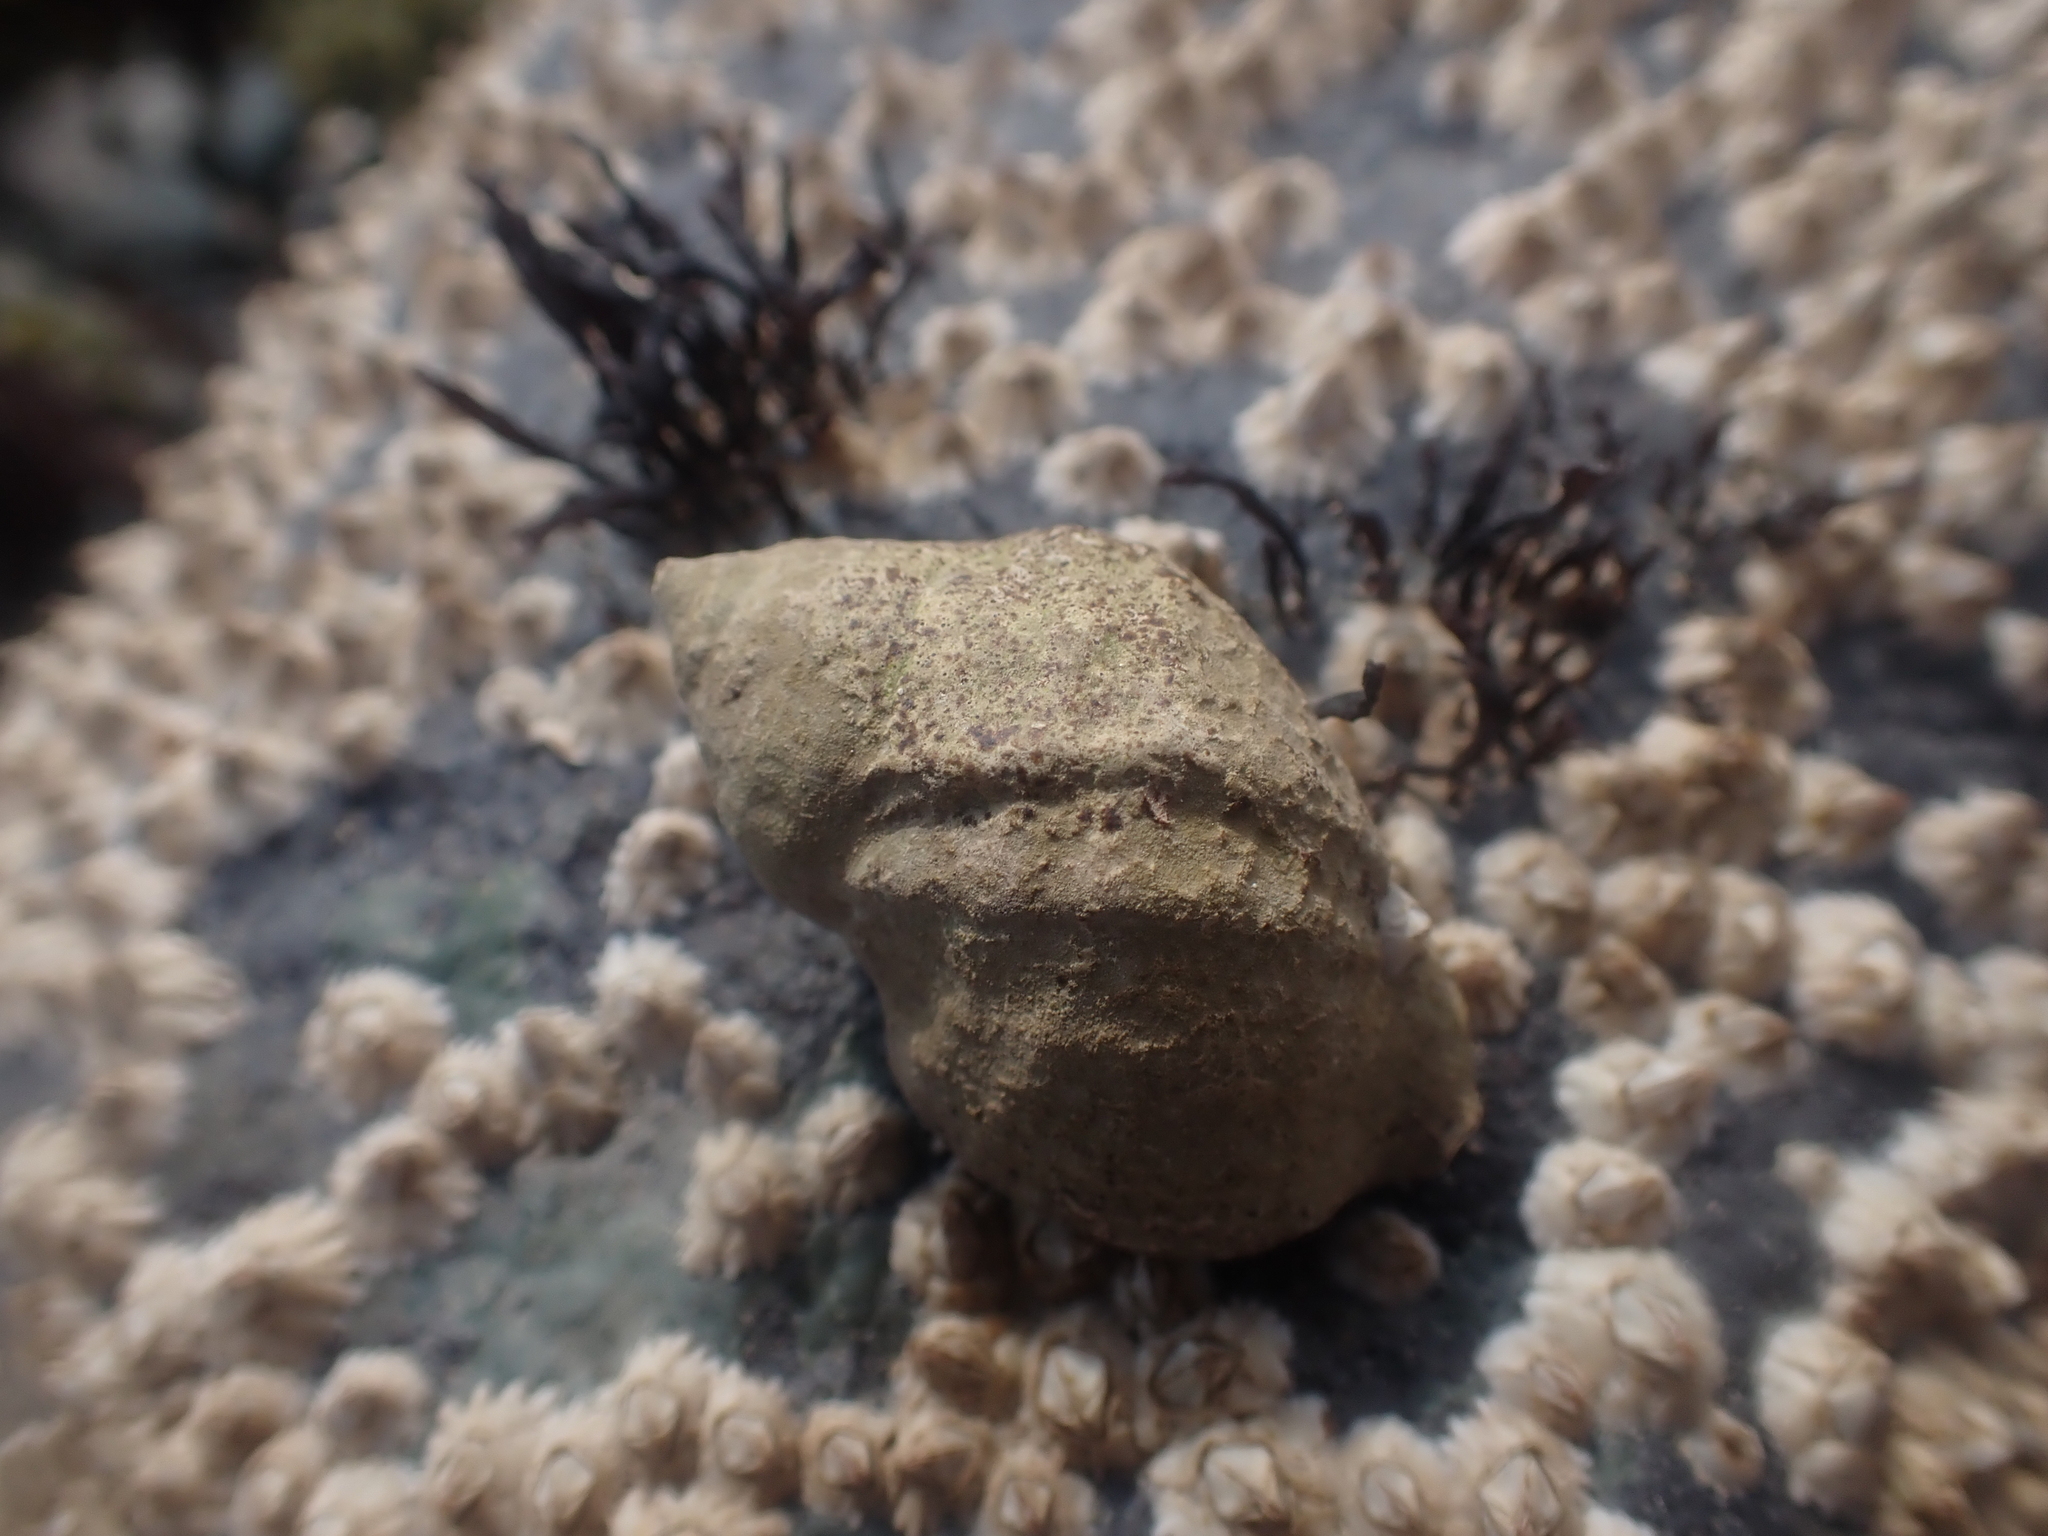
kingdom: Animalia
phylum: Mollusca
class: Gastropoda
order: Neogastropoda
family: Muricidae
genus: Nucella
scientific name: Nucella lapillus
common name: Dog whelk
